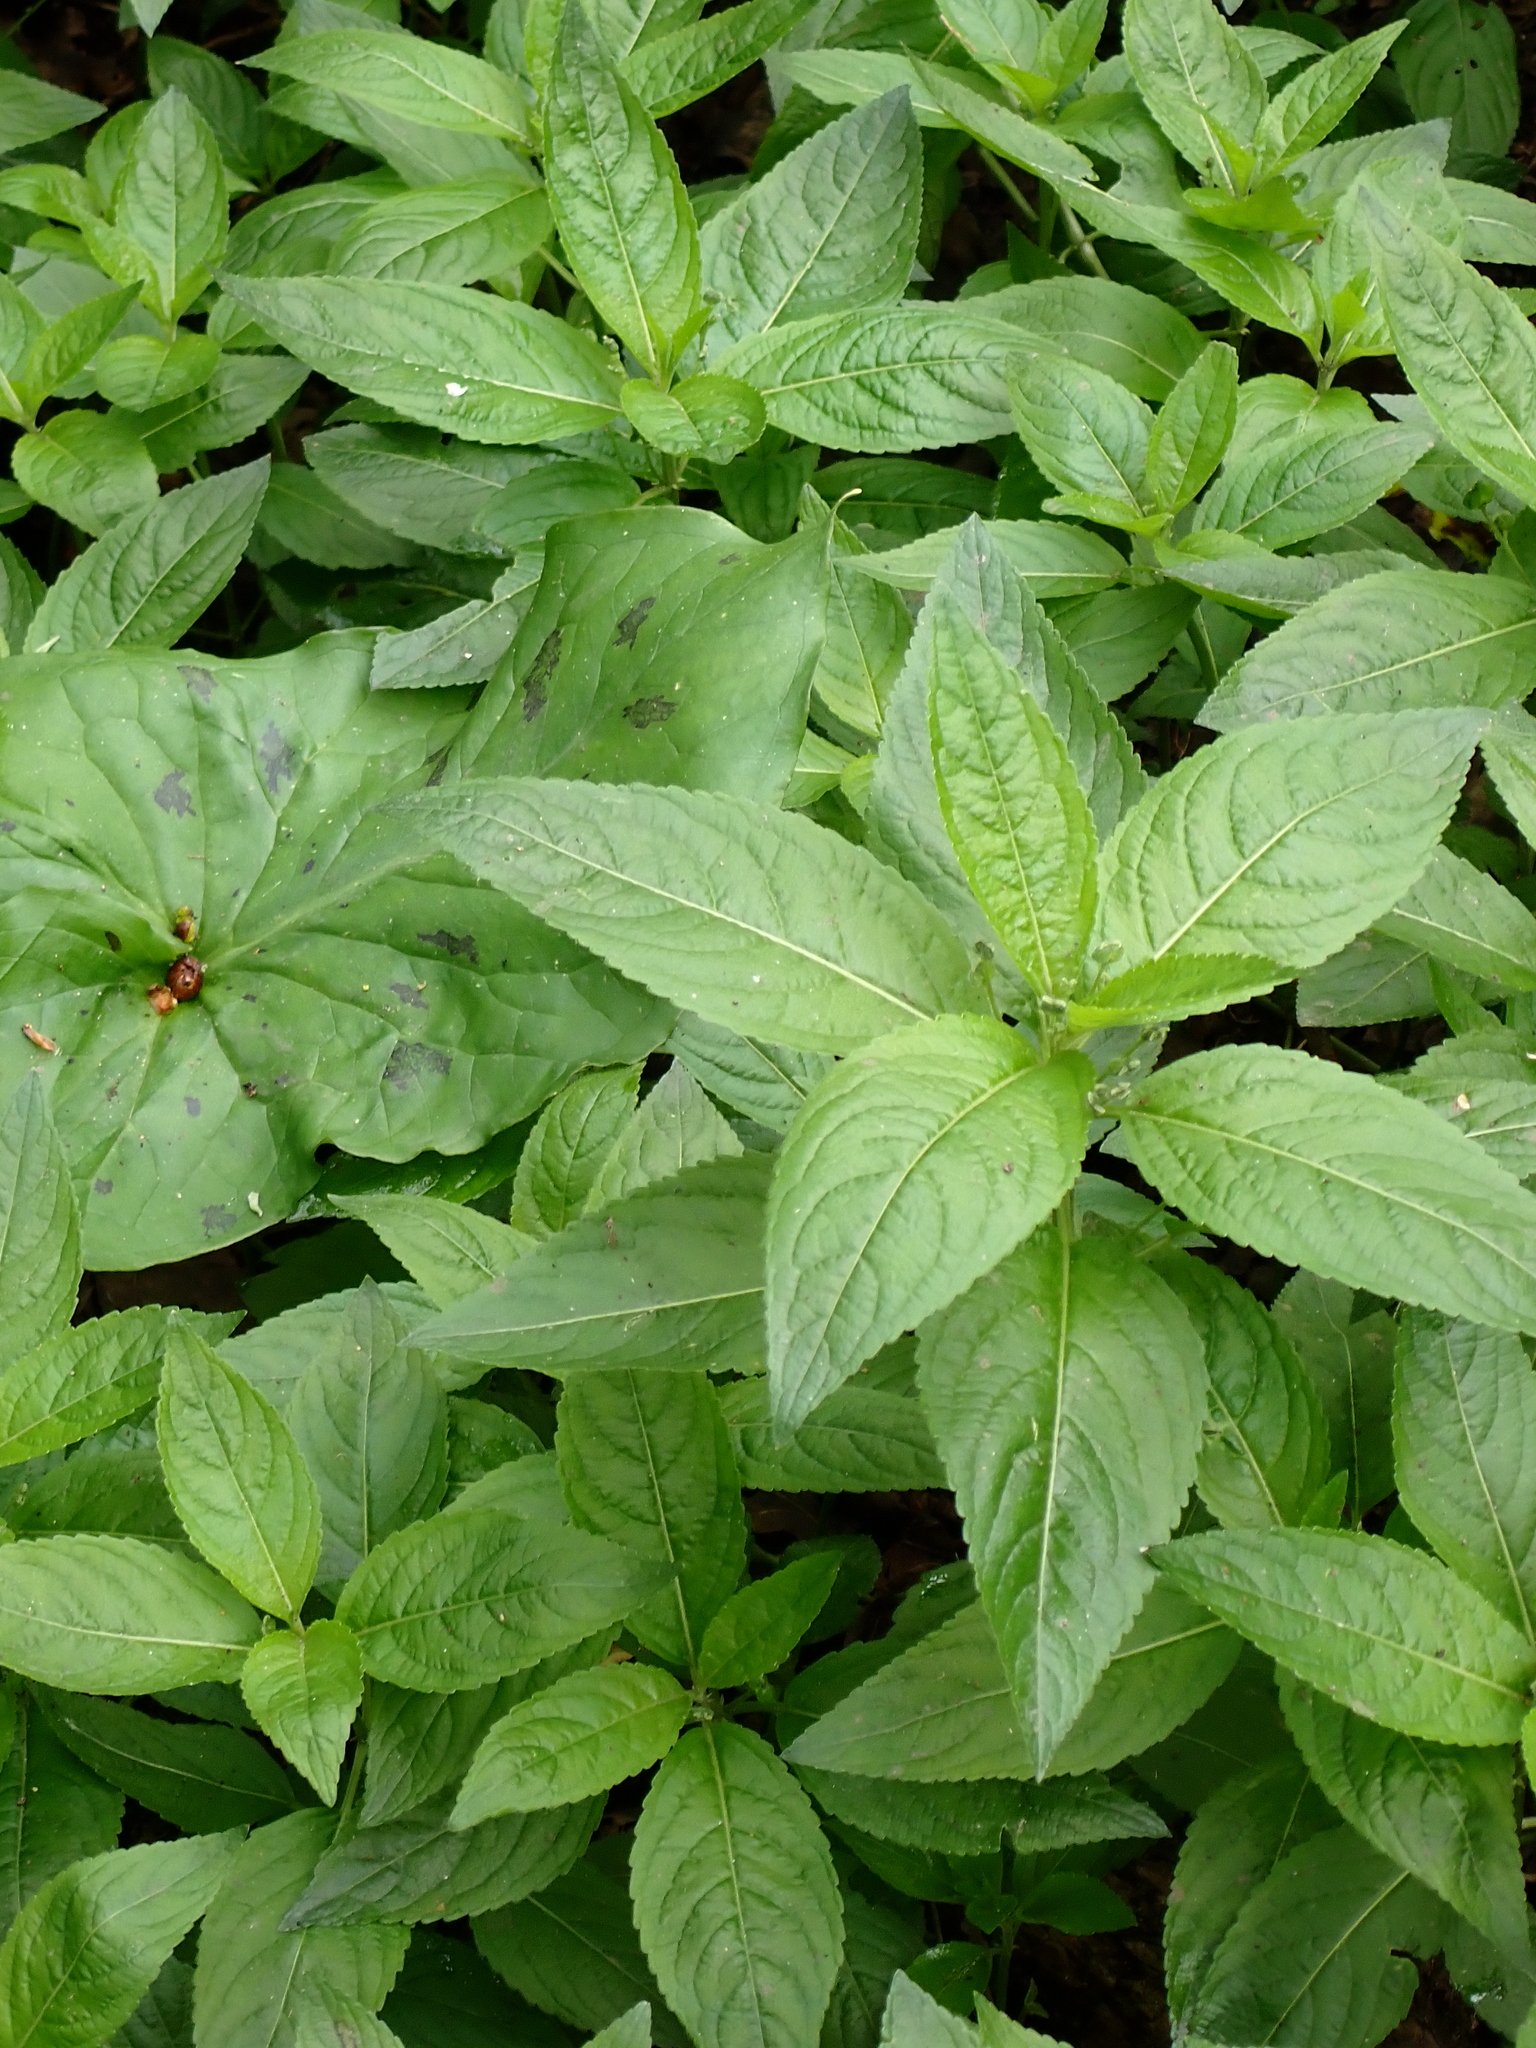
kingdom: Plantae
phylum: Tracheophyta
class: Magnoliopsida
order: Malpighiales
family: Euphorbiaceae
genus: Mercurialis
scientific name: Mercurialis perennis
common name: Dog mercury
